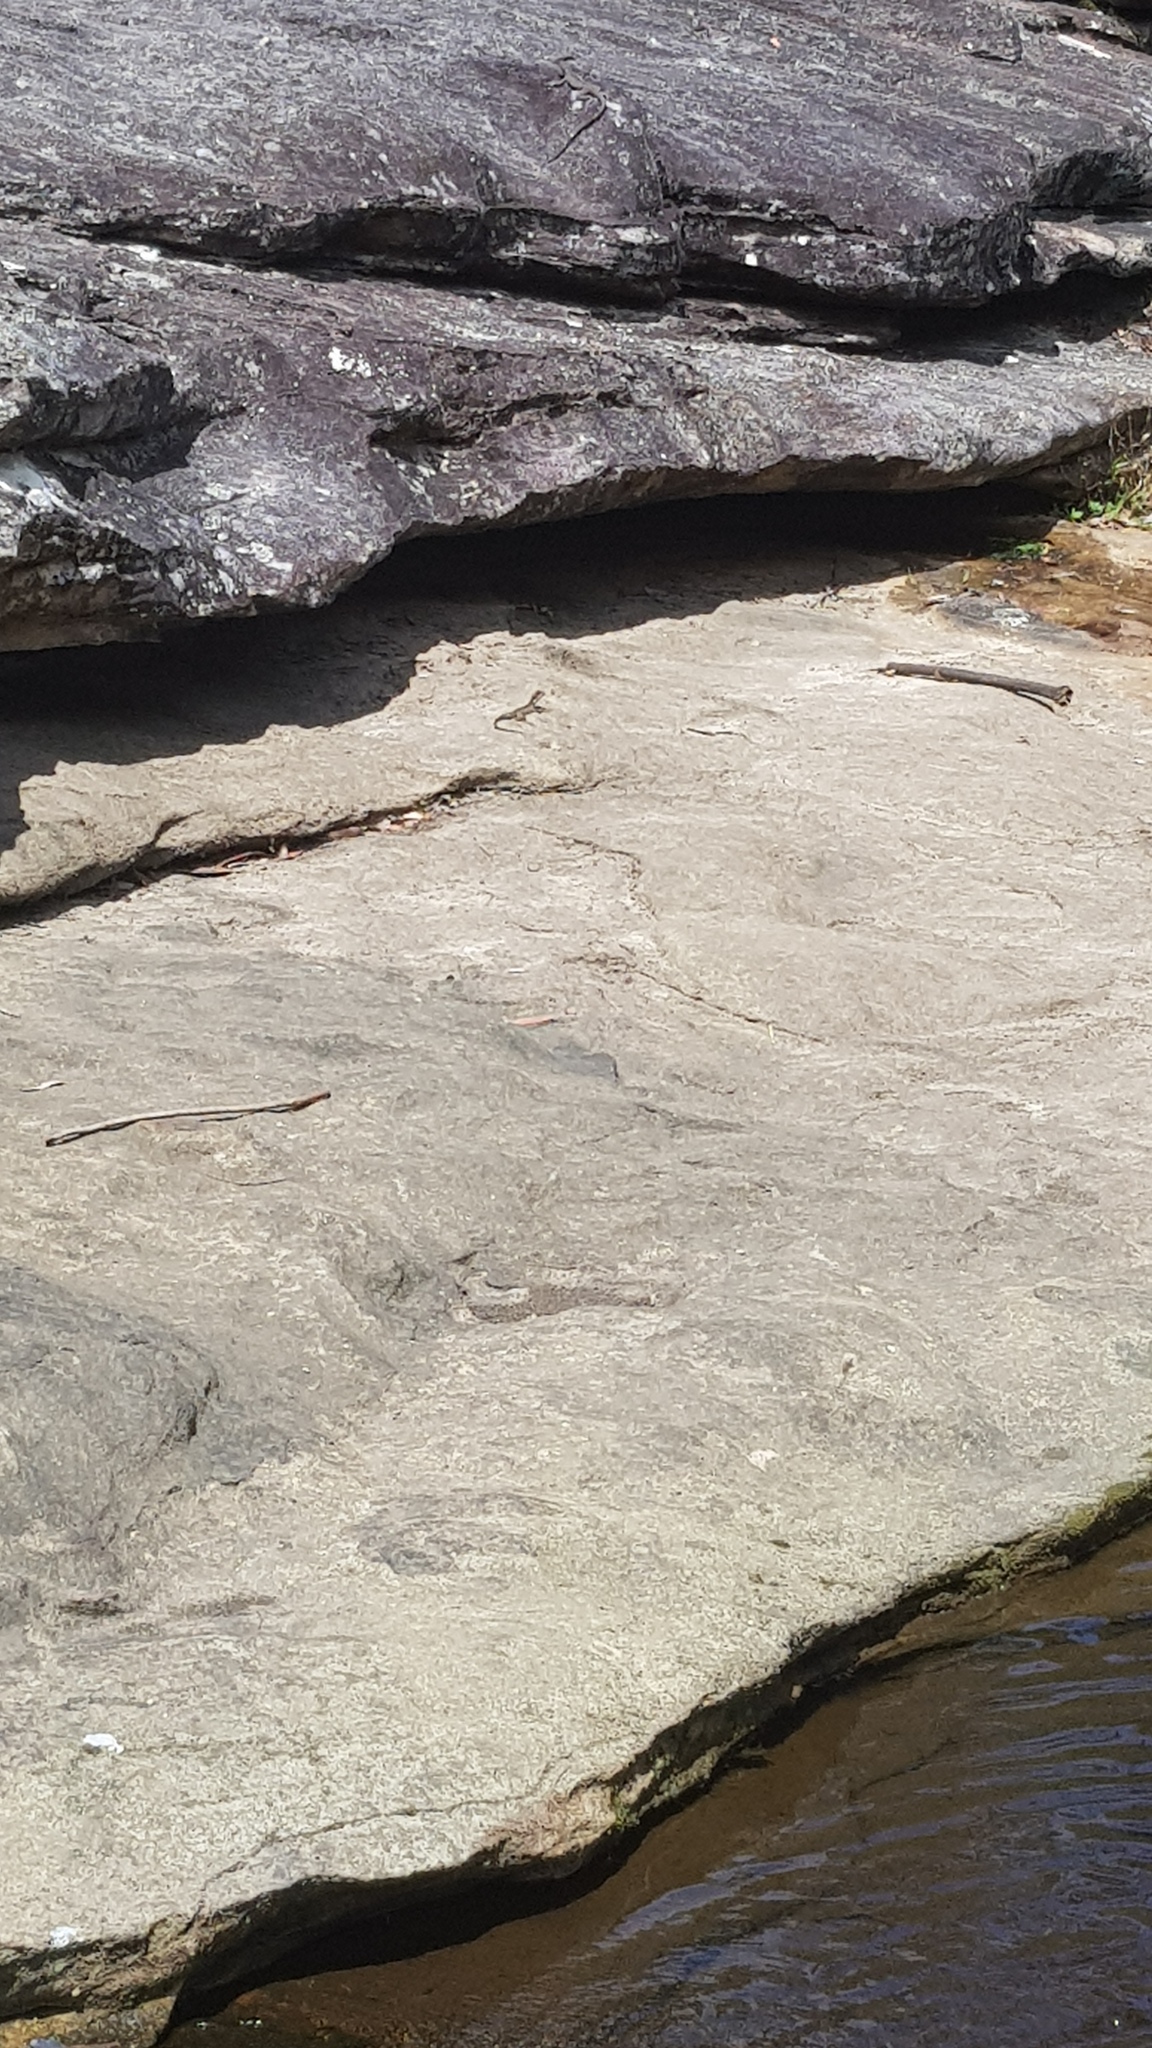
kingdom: Animalia
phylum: Chordata
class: Squamata
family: Agamidae
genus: Intellagama
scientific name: Intellagama lesueurii
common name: Eastern water dragon
